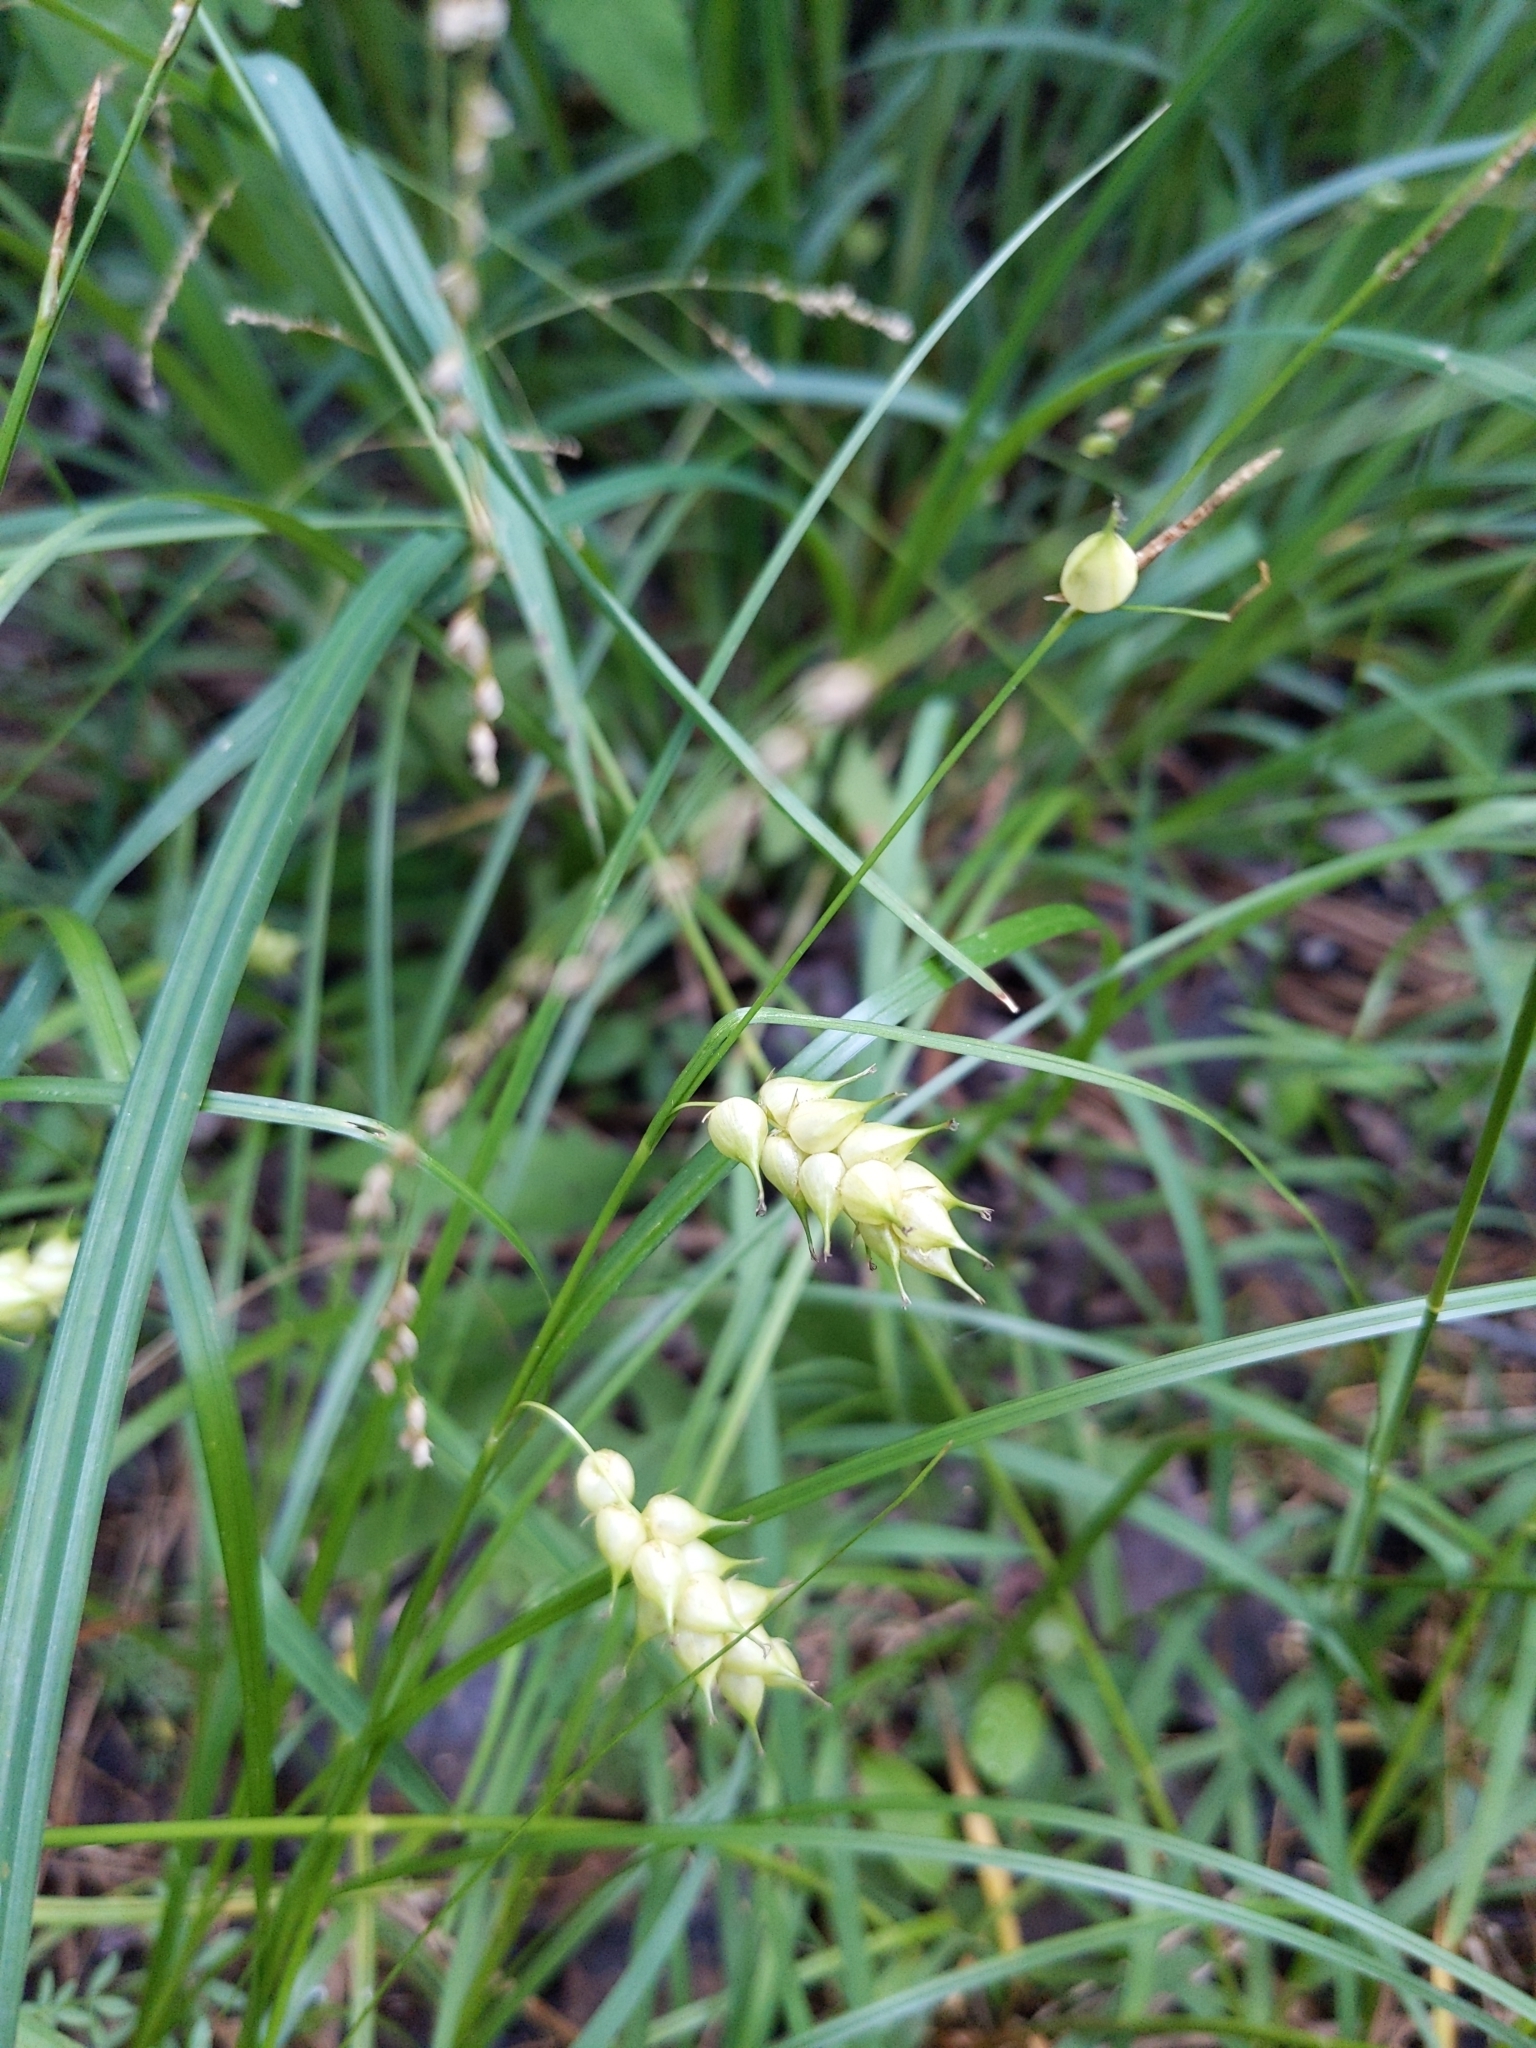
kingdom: Plantae
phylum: Tracheophyta
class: Liliopsida
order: Poales
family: Cyperaceae
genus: Carex
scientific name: Carex tuckermanii
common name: Tuckerman's sedge
